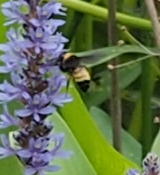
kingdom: Animalia
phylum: Arthropoda
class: Insecta
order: Hymenoptera
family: Apidae
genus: Bombus
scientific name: Bombus pensylvanicus
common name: Bumble bee
